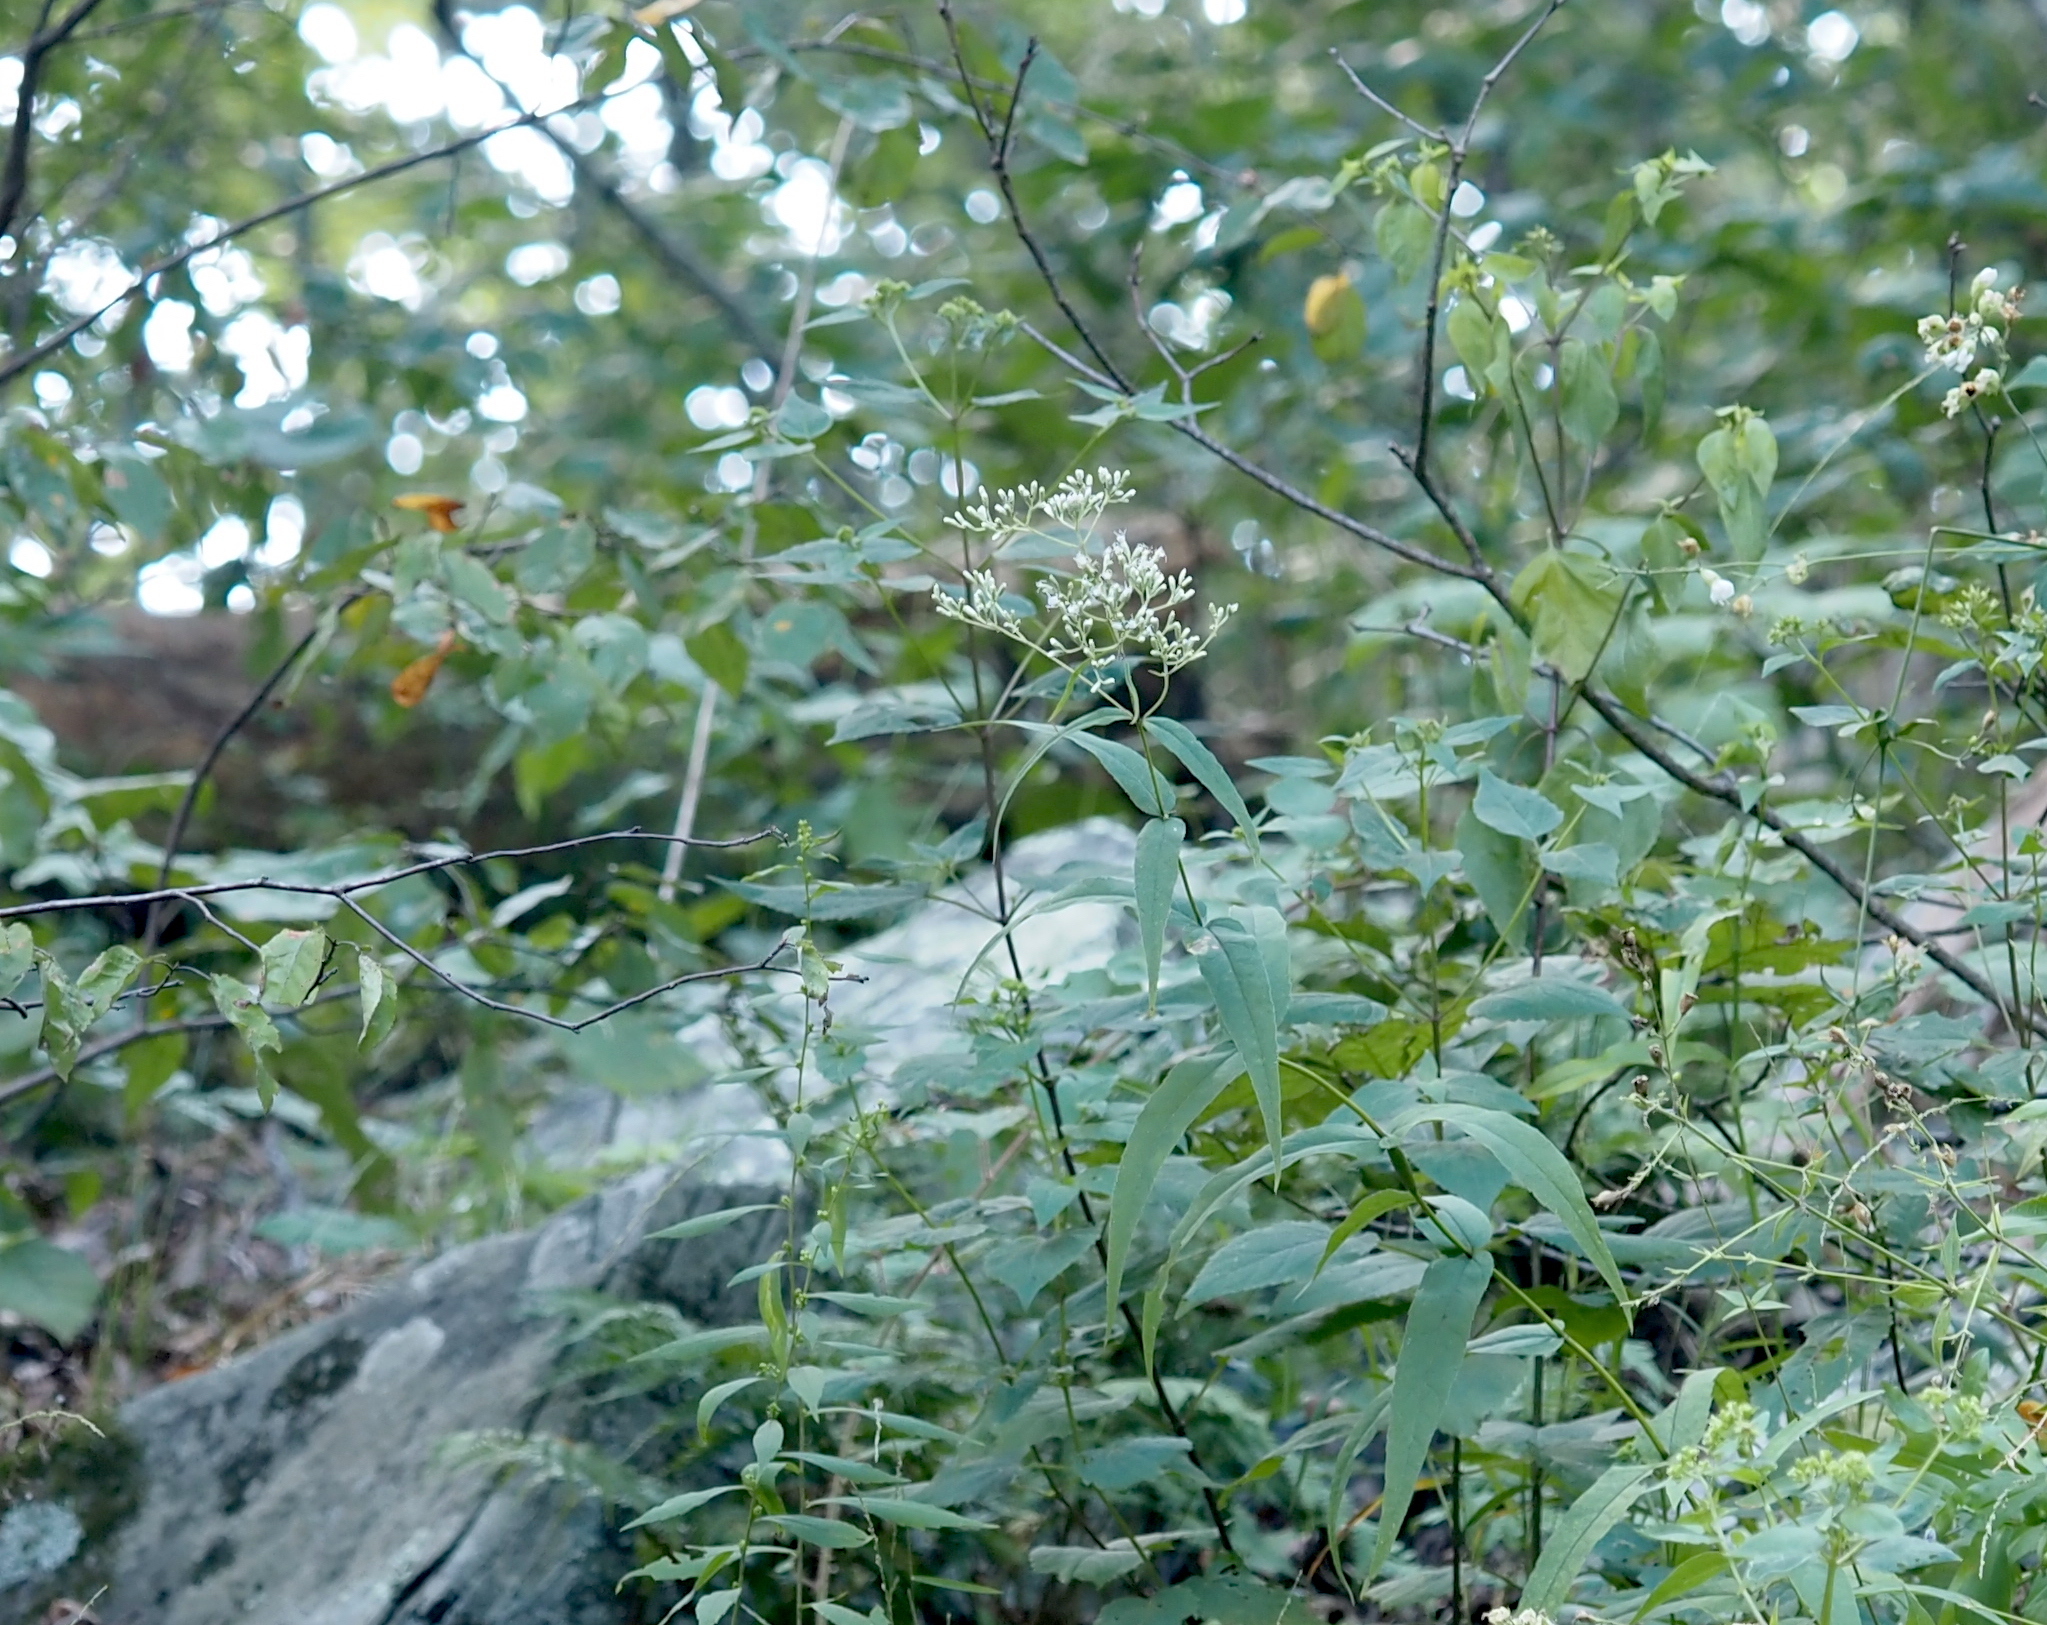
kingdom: Plantae
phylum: Tracheophyta
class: Magnoliopsida
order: Asterales
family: Asteraceae
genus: Eupatorium
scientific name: Eupatorium sessilifolium
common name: Upland boneset
